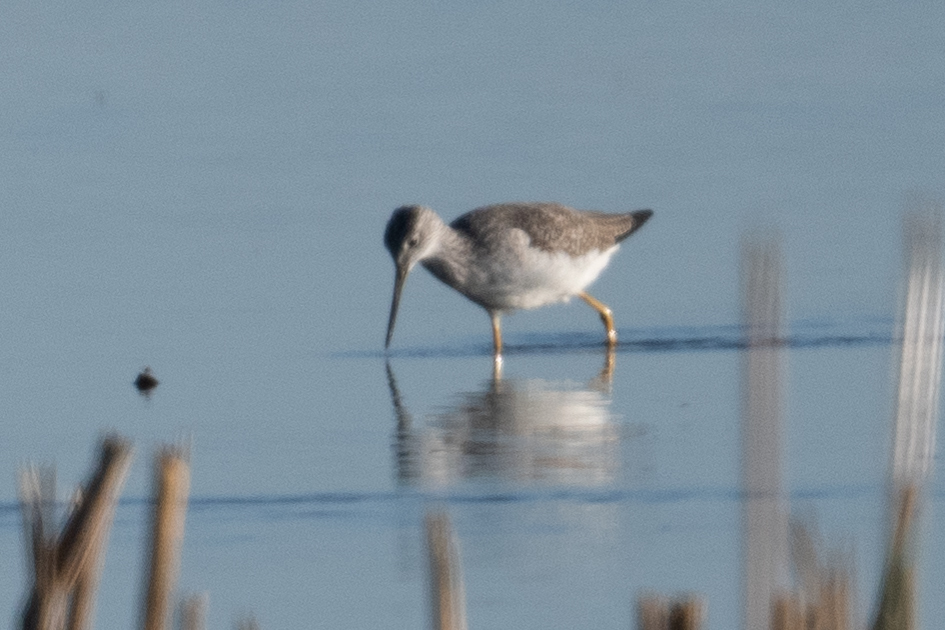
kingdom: Animalia
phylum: Chordata
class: Aves
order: Charadriiformes
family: Scolopacidae
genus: Tringa
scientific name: Tringa melanoleuca
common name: Greater yellowlegs
